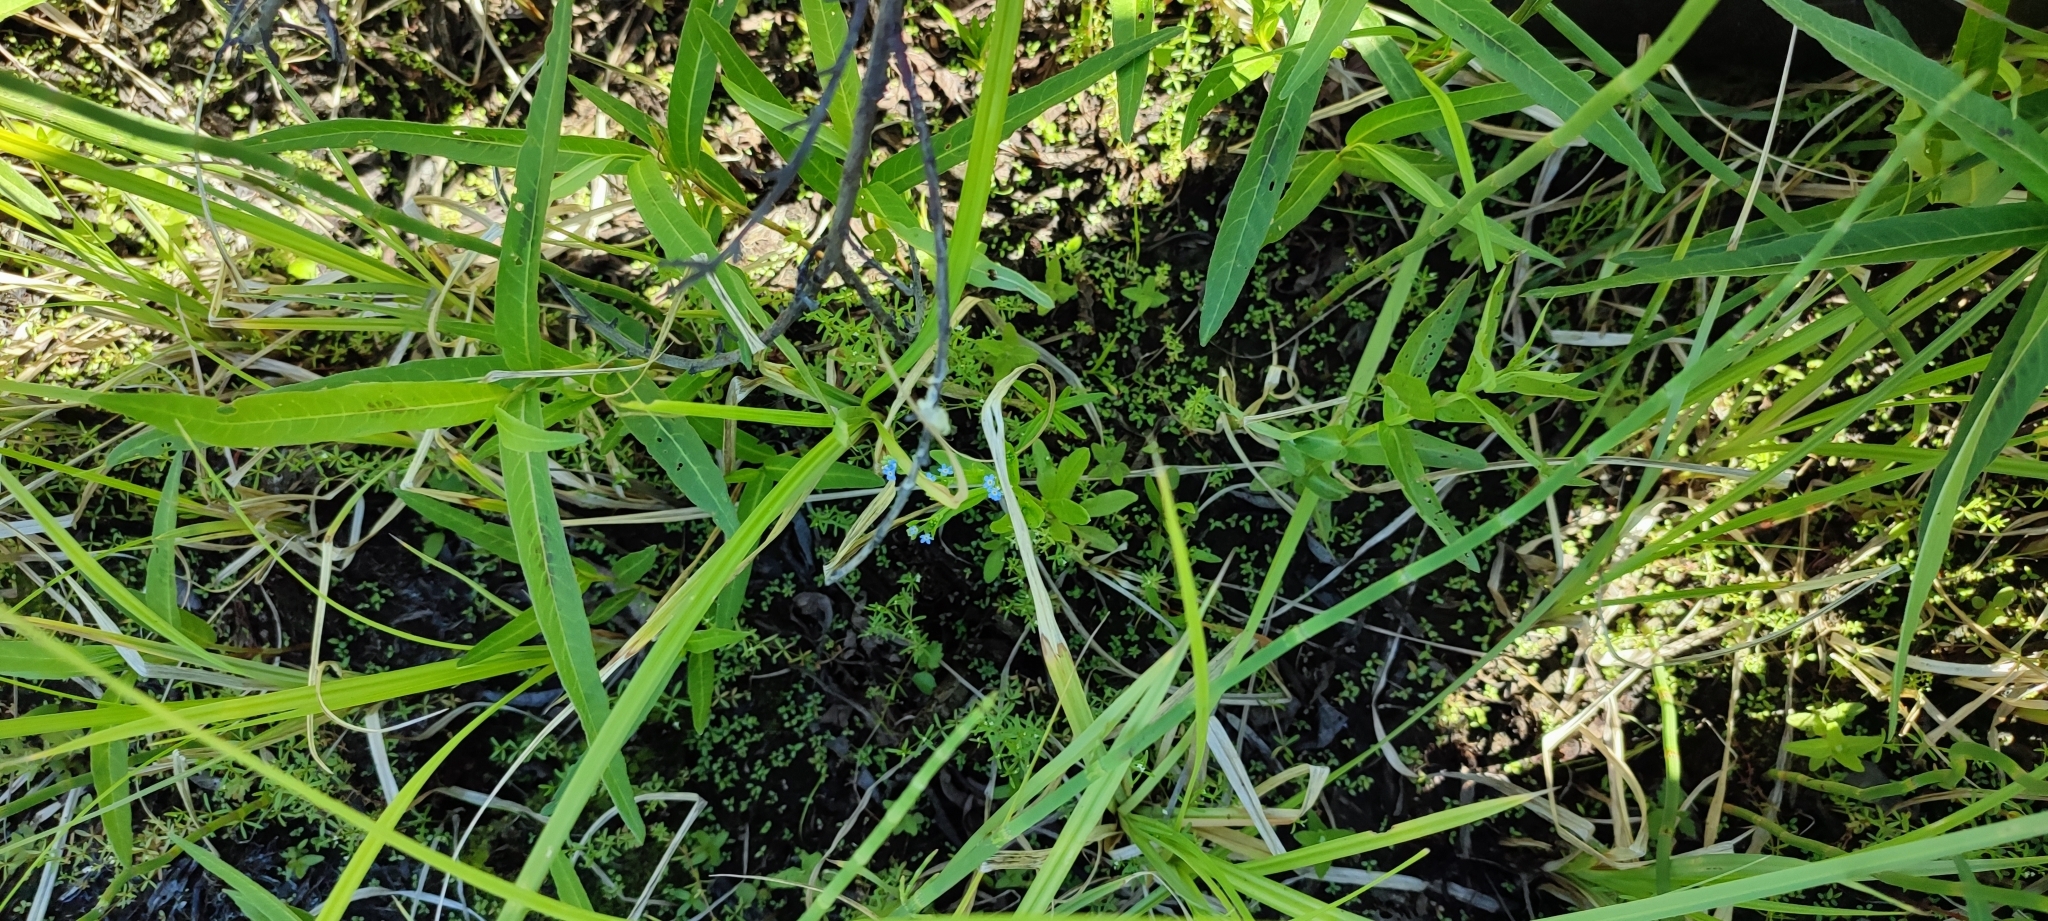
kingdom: Plantae
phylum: Tracheophyta
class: Magnoliopsida
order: Boraginales
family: Boraginaceae
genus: Myosotis
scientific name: Myosotis laxa
